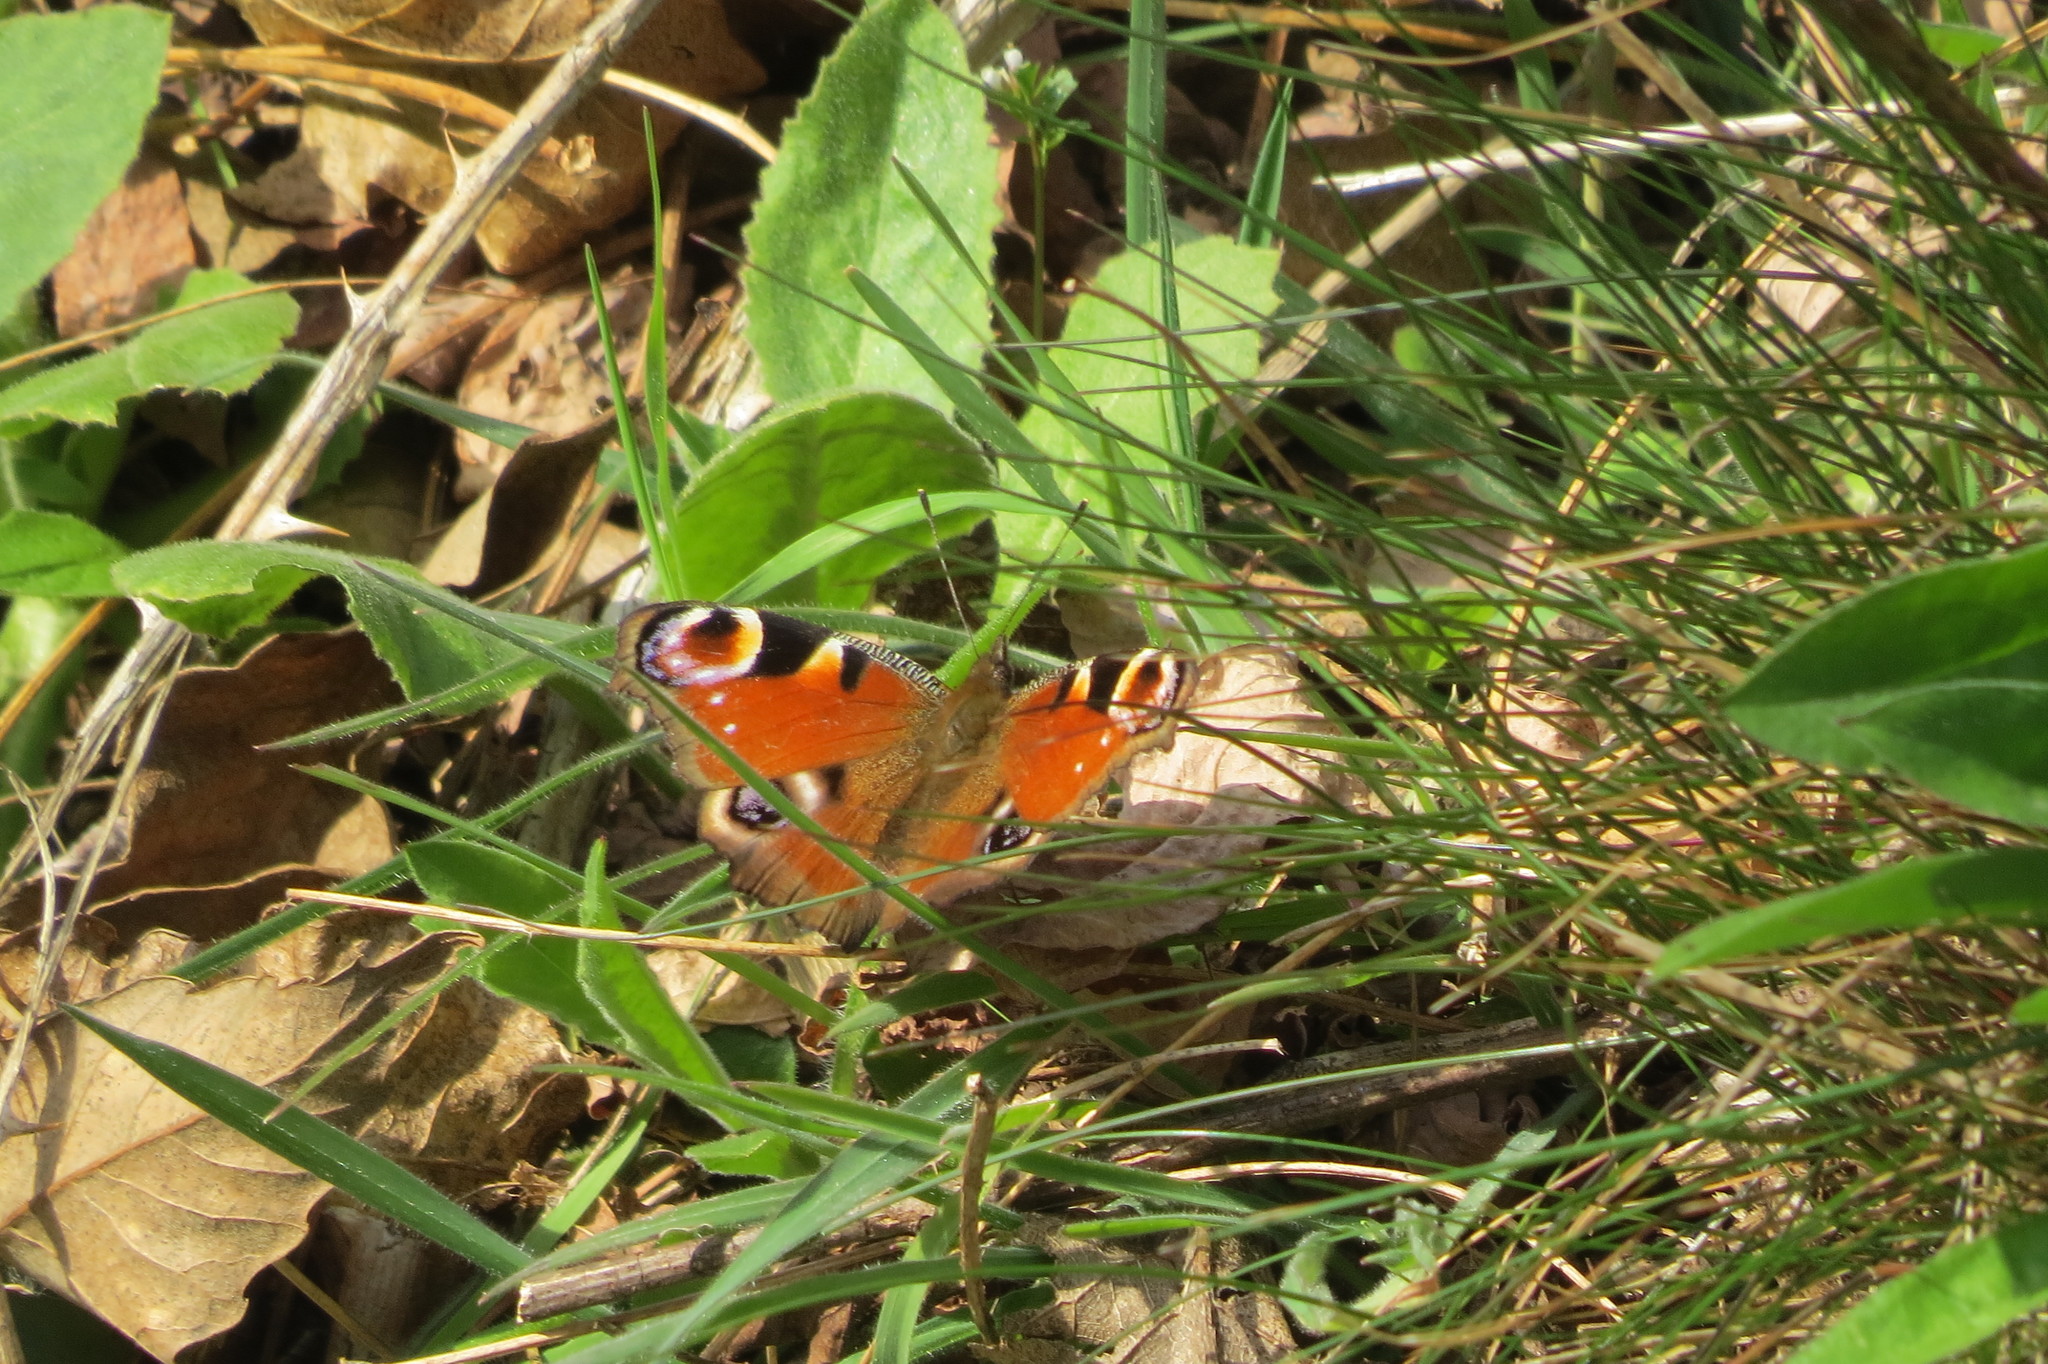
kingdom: Animalia
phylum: Arthropoda
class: Insecta
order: Lepidoptera
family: Nymphalidae
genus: Aglais
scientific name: Aglais io
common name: Peacock
